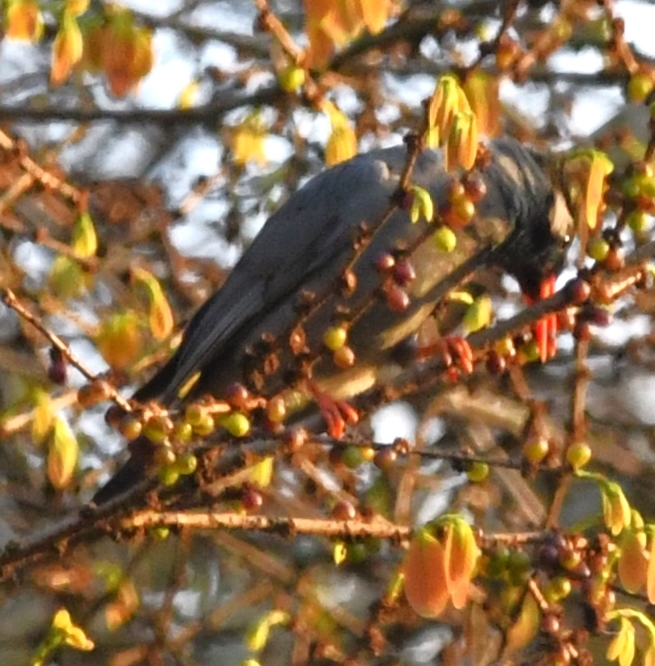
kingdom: Animalia
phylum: Chordata
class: Aves
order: Passeriformes
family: Pycnonotidae
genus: Hypsipetes
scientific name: Hypsipetes leucocephalus
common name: Black bulbul
